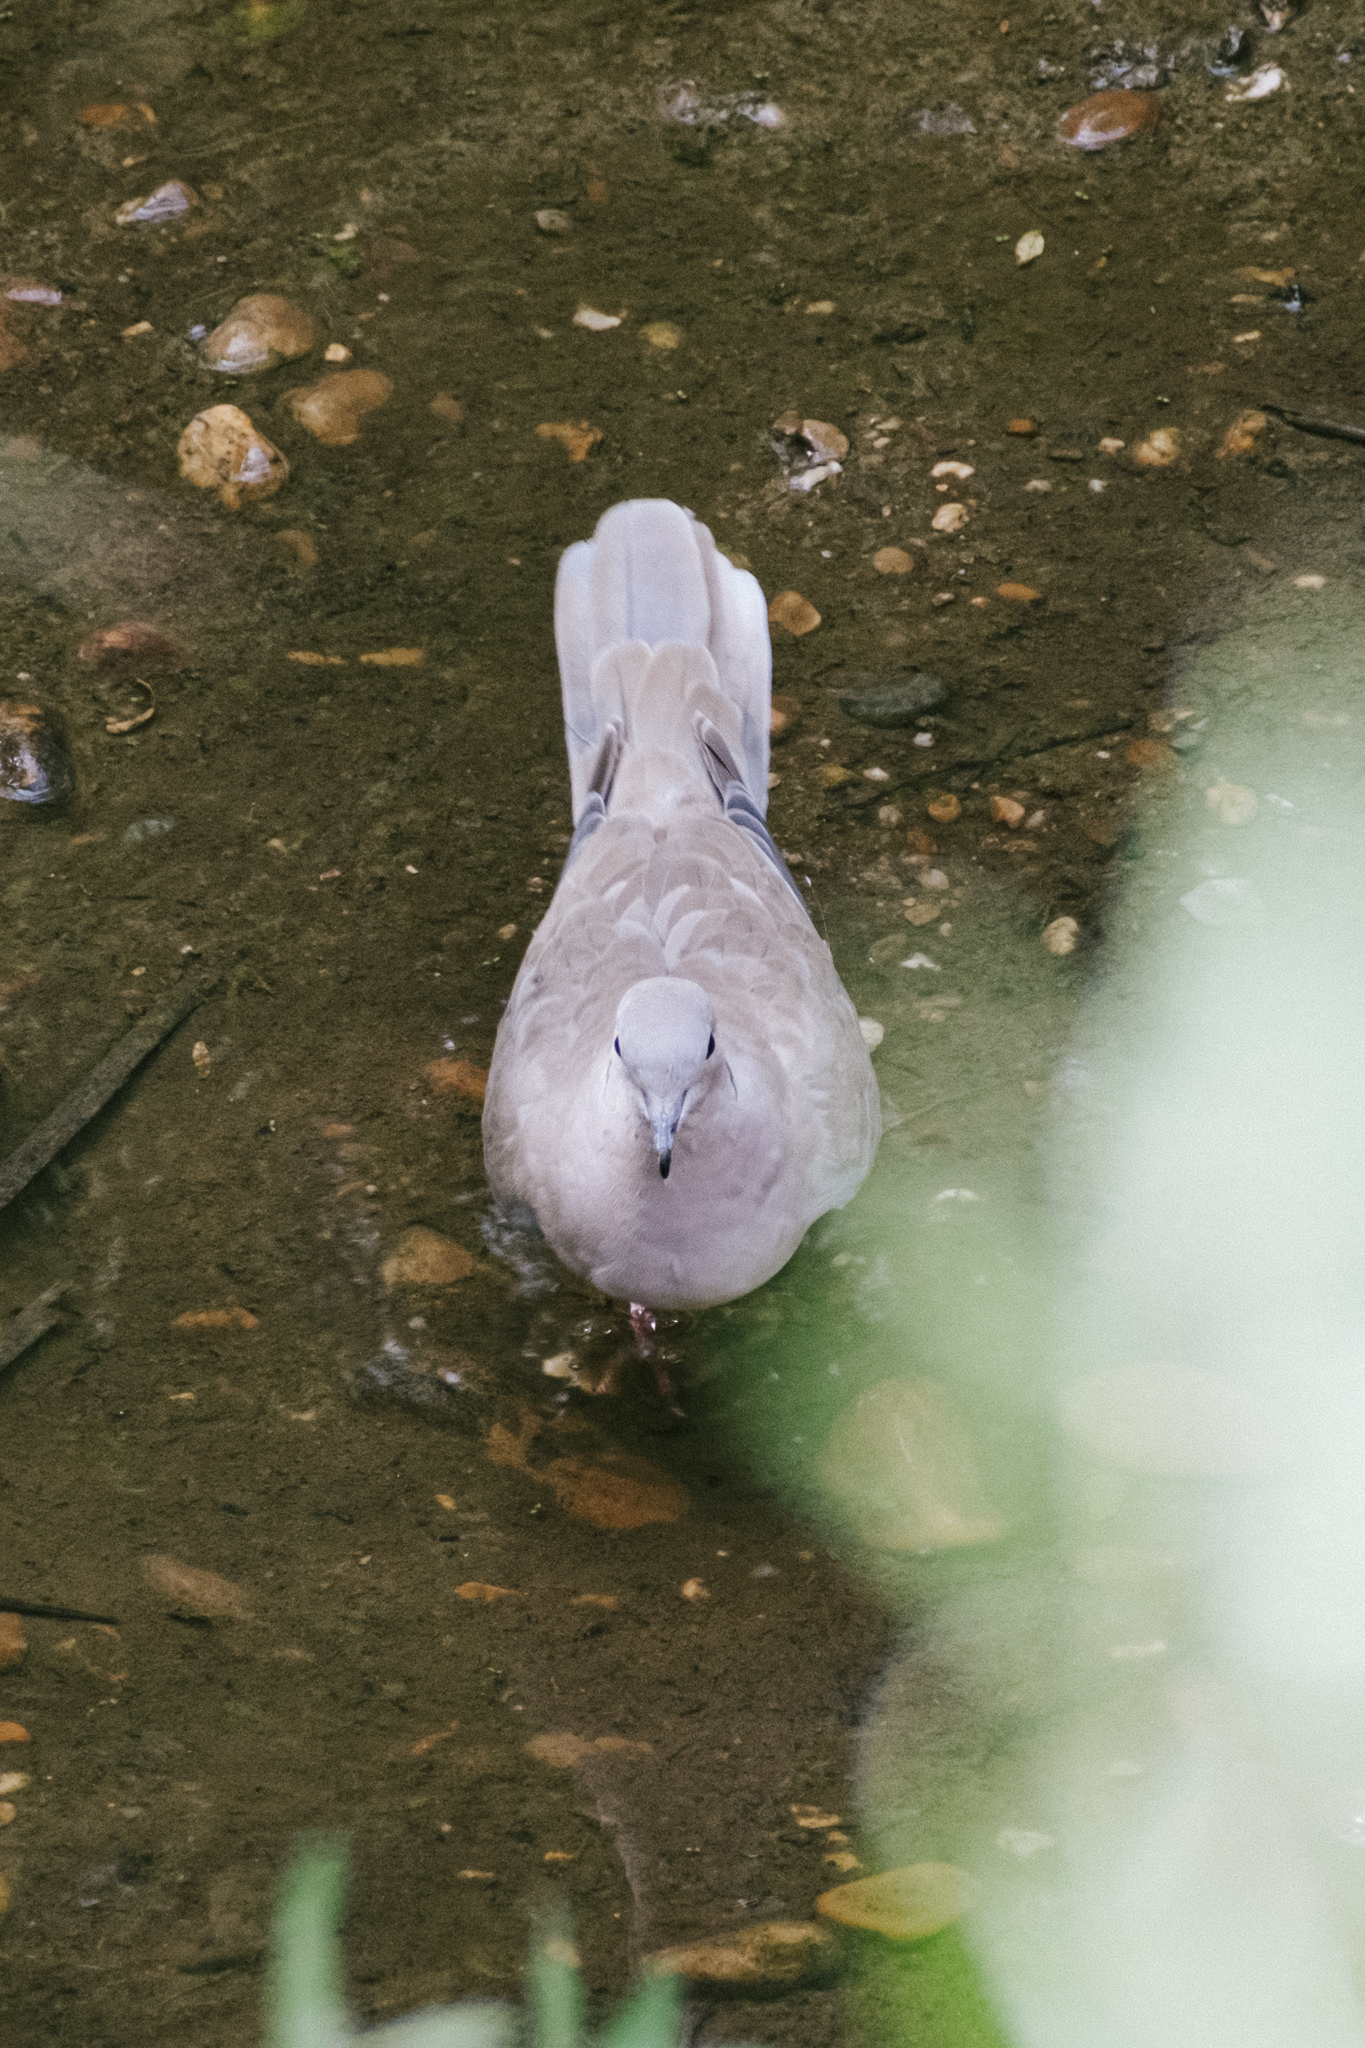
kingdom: Animalia
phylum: Chordata
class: Aves
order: Columbiformes
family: Columbidae
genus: Streptopelia
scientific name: Streptopelia decaocto
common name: Eurasian collared dove
